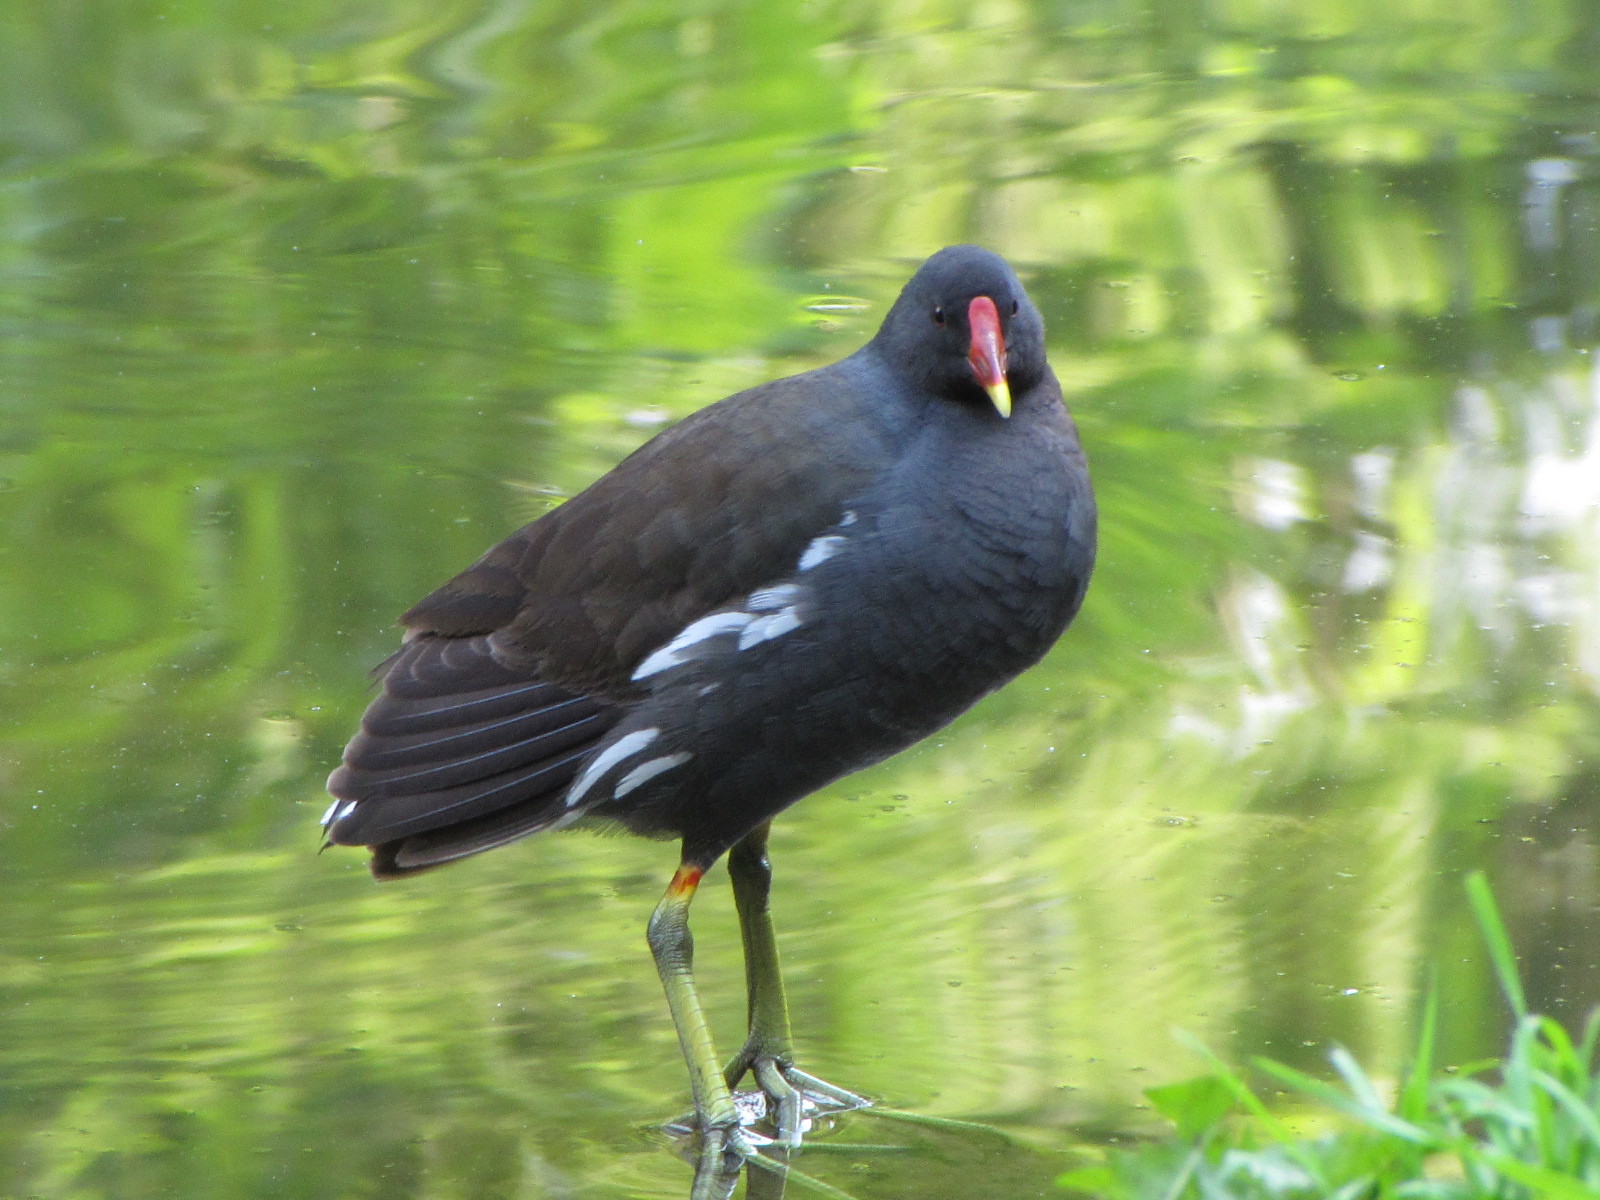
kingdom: Animalia
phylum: Chordata
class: Aves
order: Gruiformes
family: Rallidae
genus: Gallinula
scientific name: Gallinula chloropus
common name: Common moorhen
